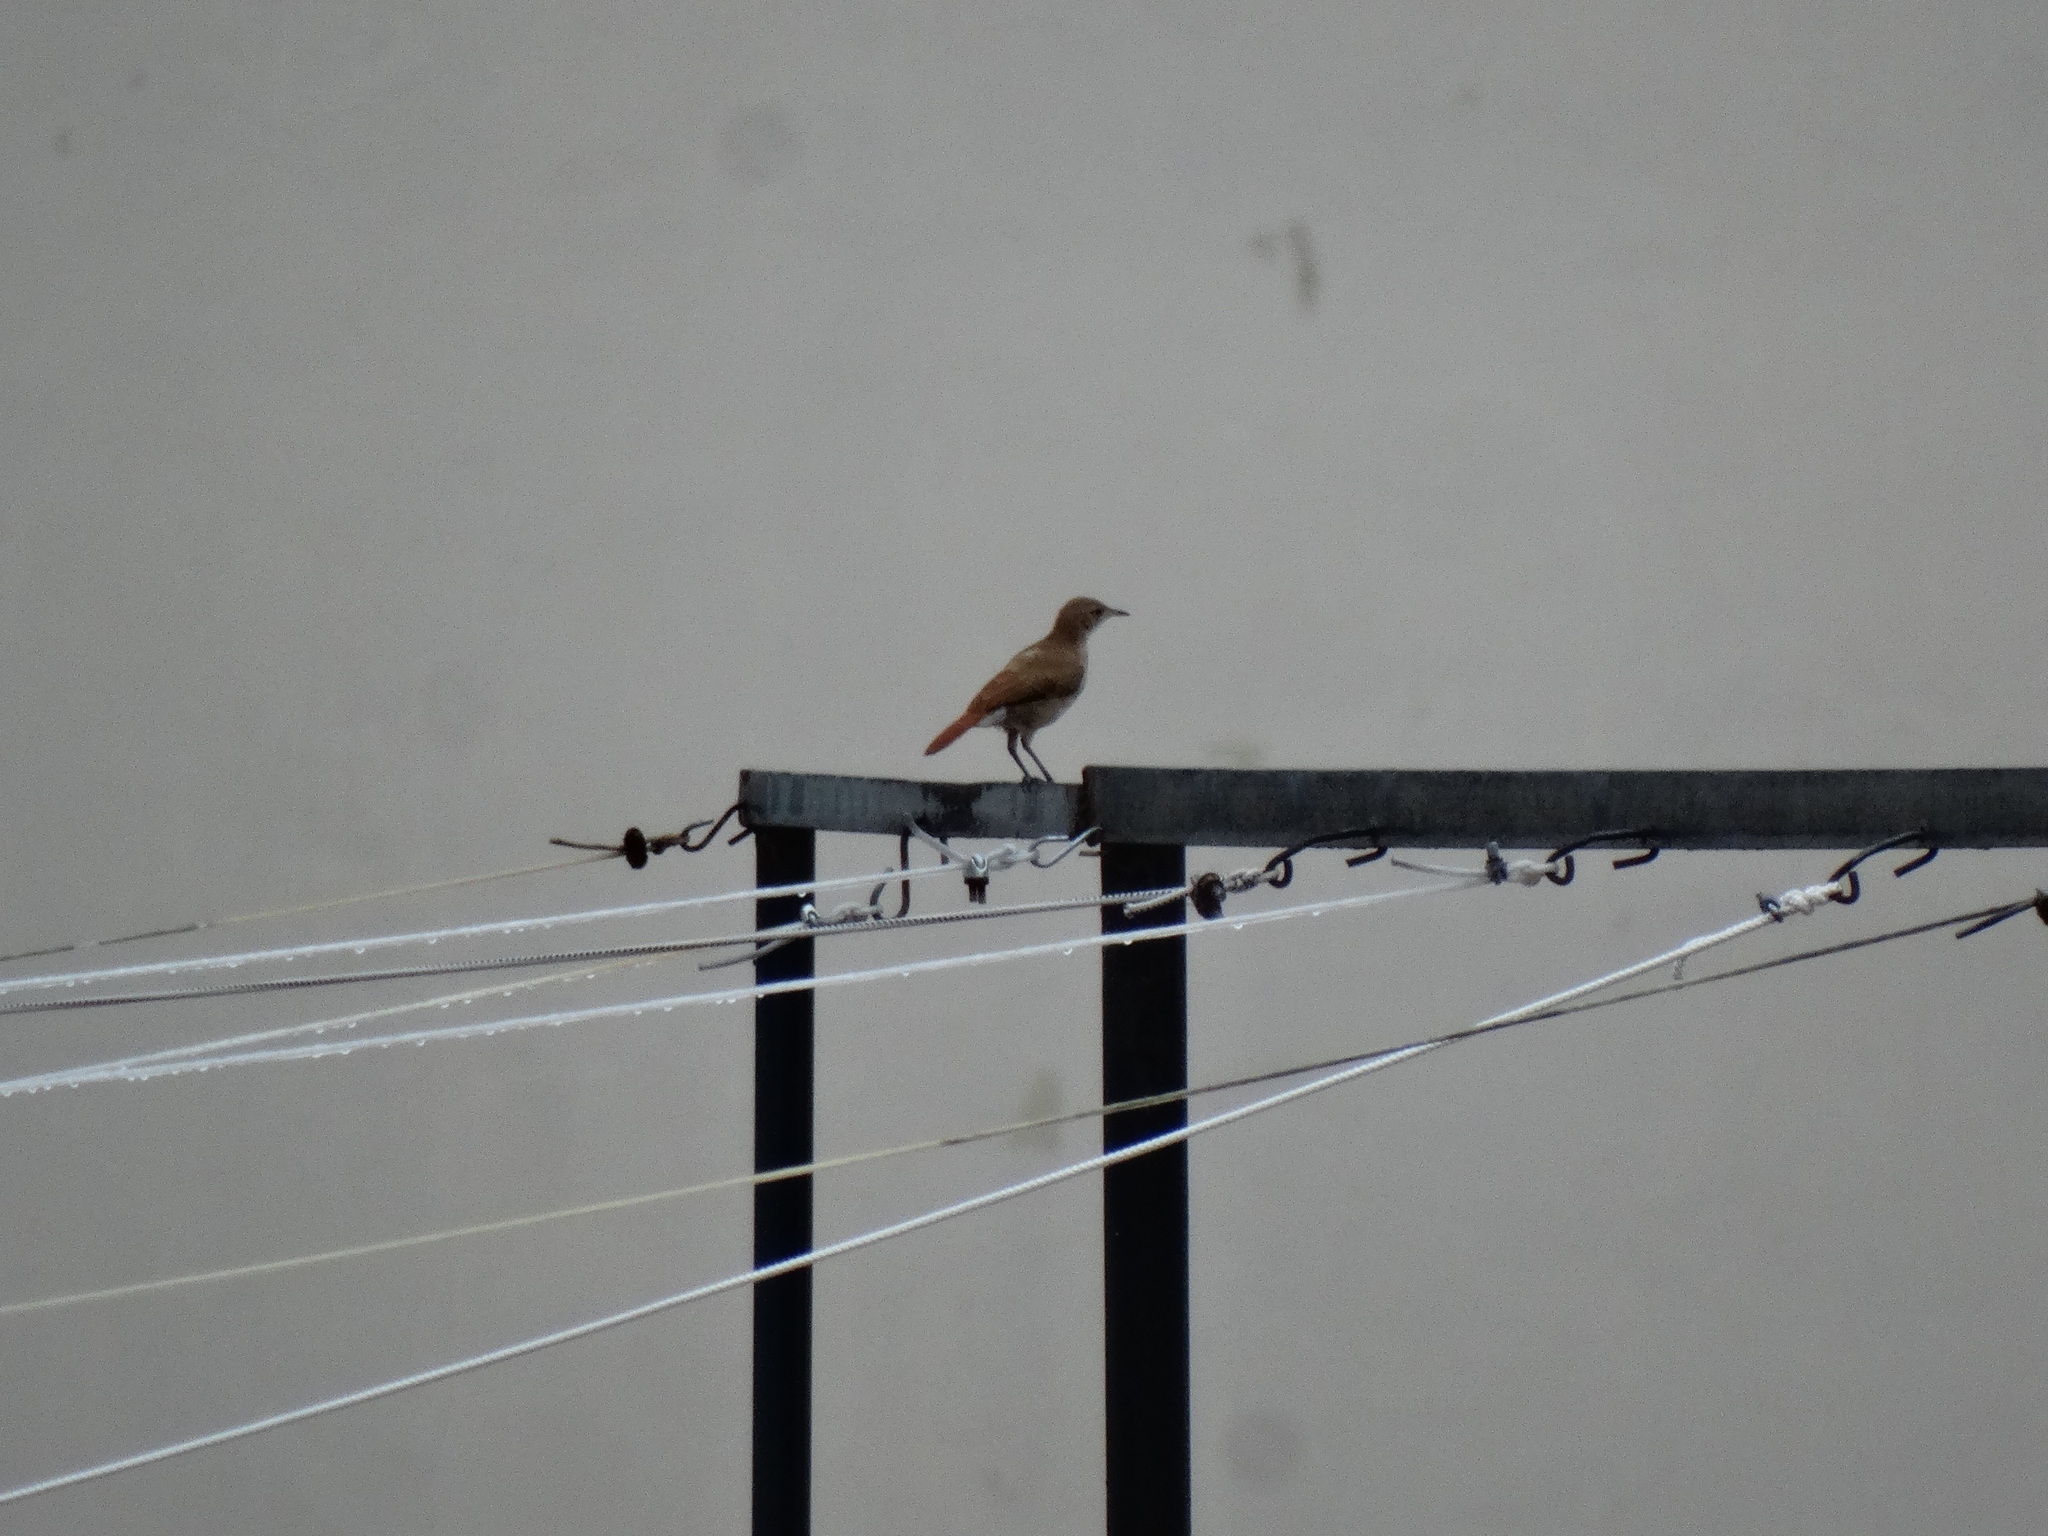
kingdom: Animalia
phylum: Chordata
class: Aves
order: Passeriformes
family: Furnariidae
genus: Furnarius
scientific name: Furnarius rufus
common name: Rufous hornero
